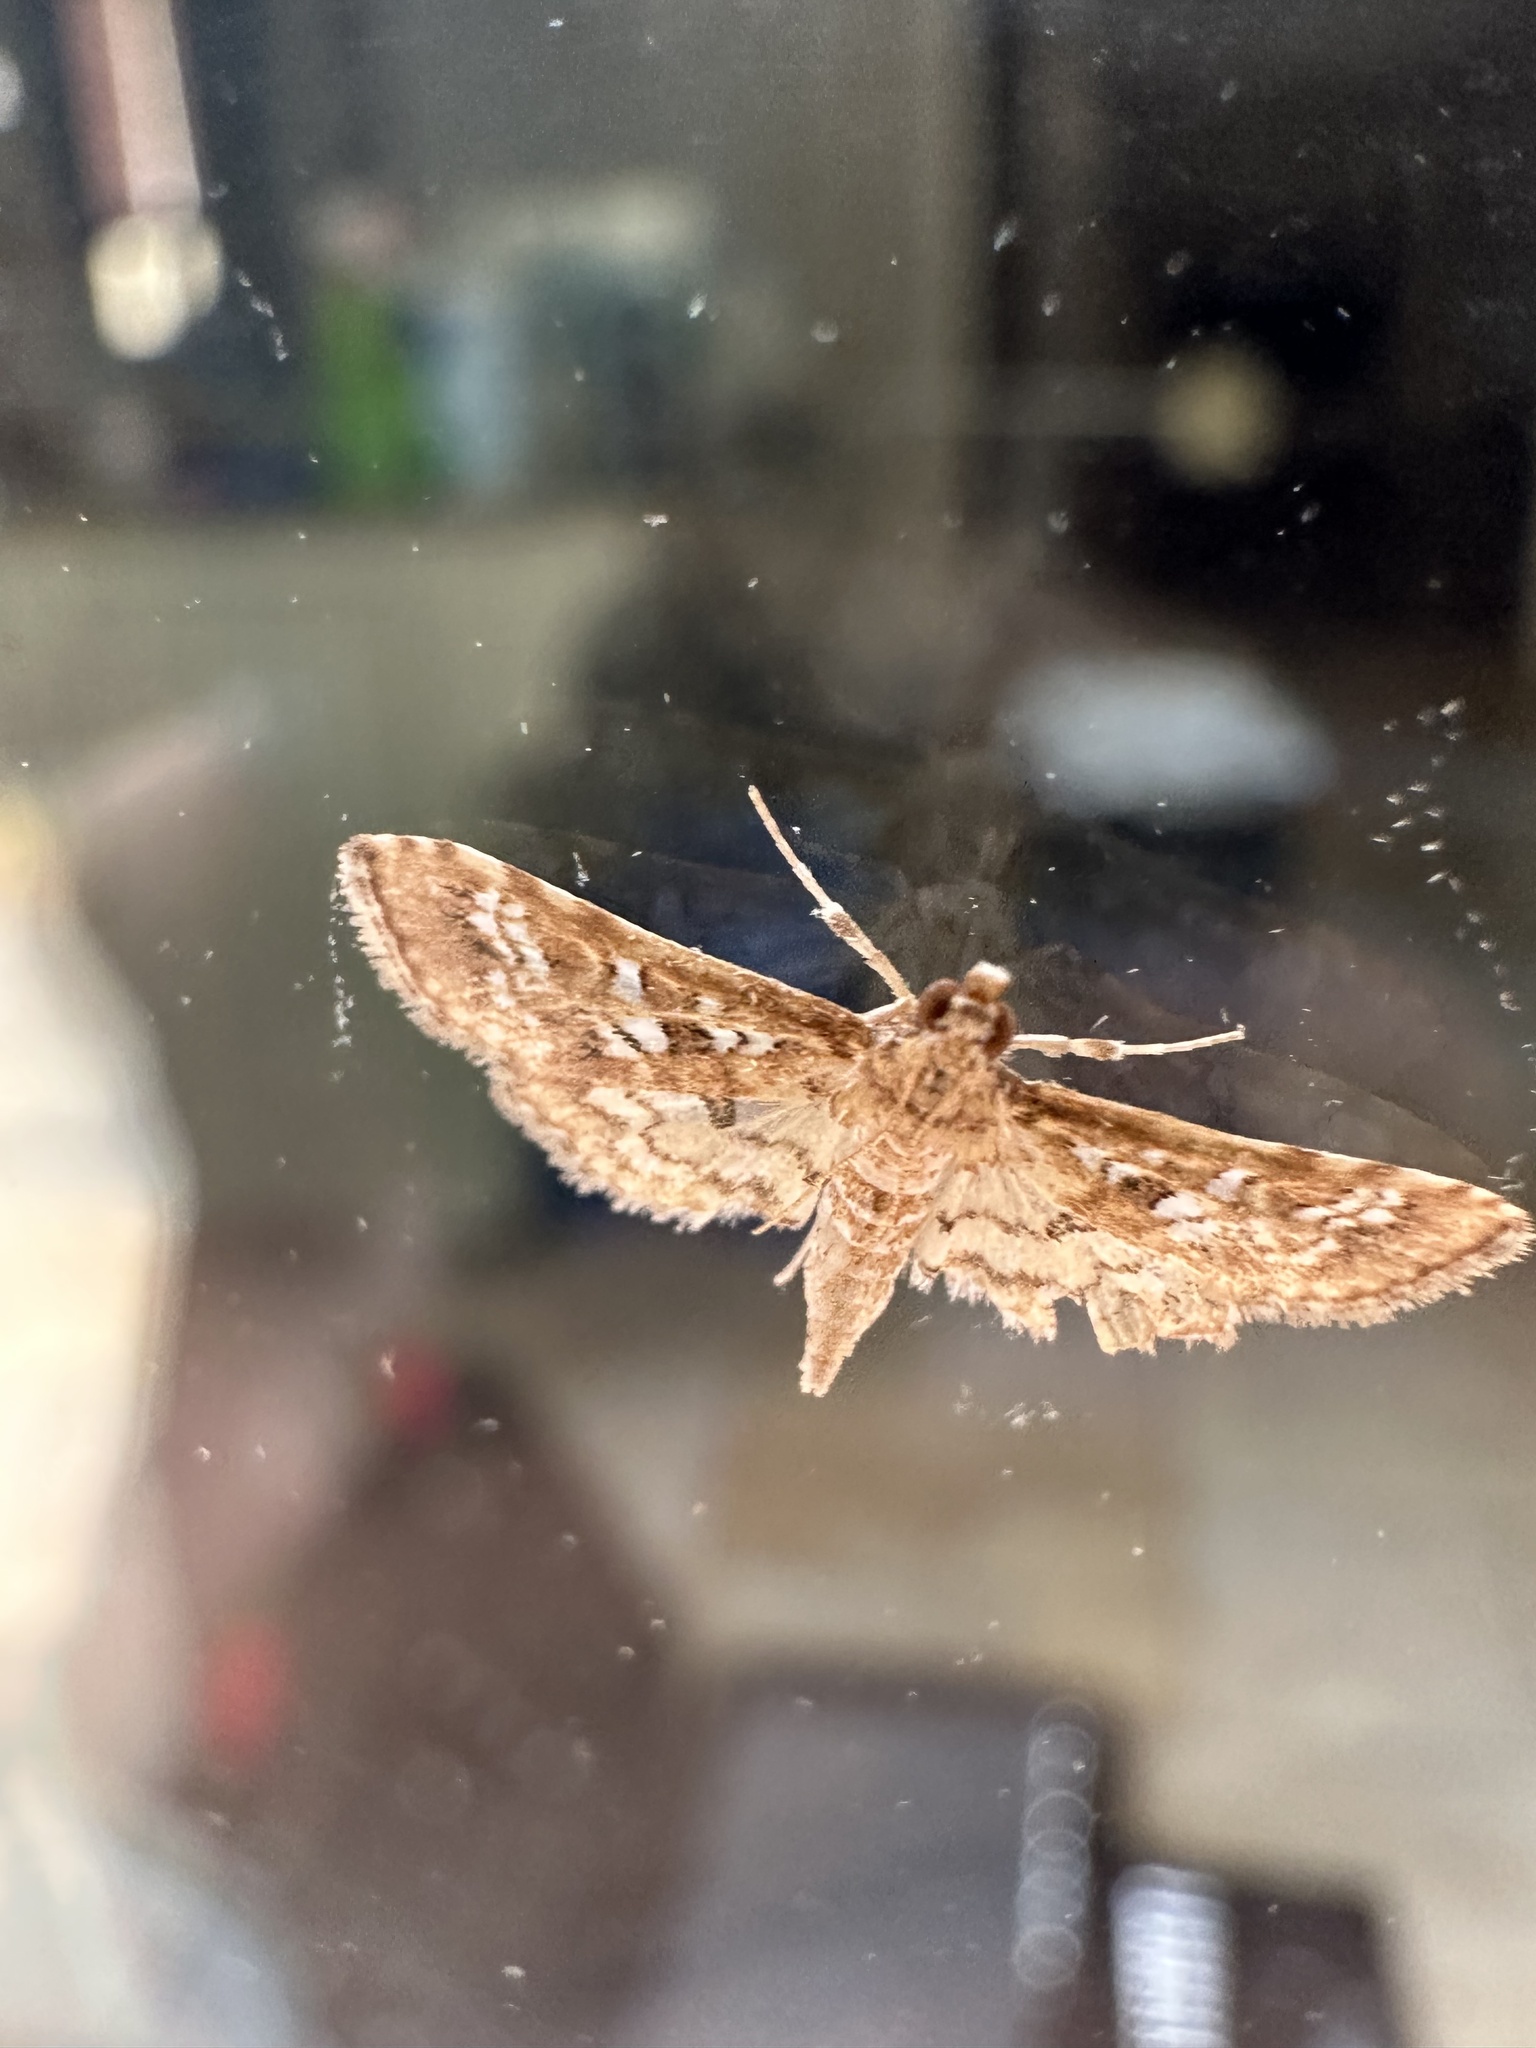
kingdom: Animalia
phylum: Arthropoda
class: Insecta
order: Lepidoptera
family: Crambidae
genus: Samea
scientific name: Samea multiplicalis
